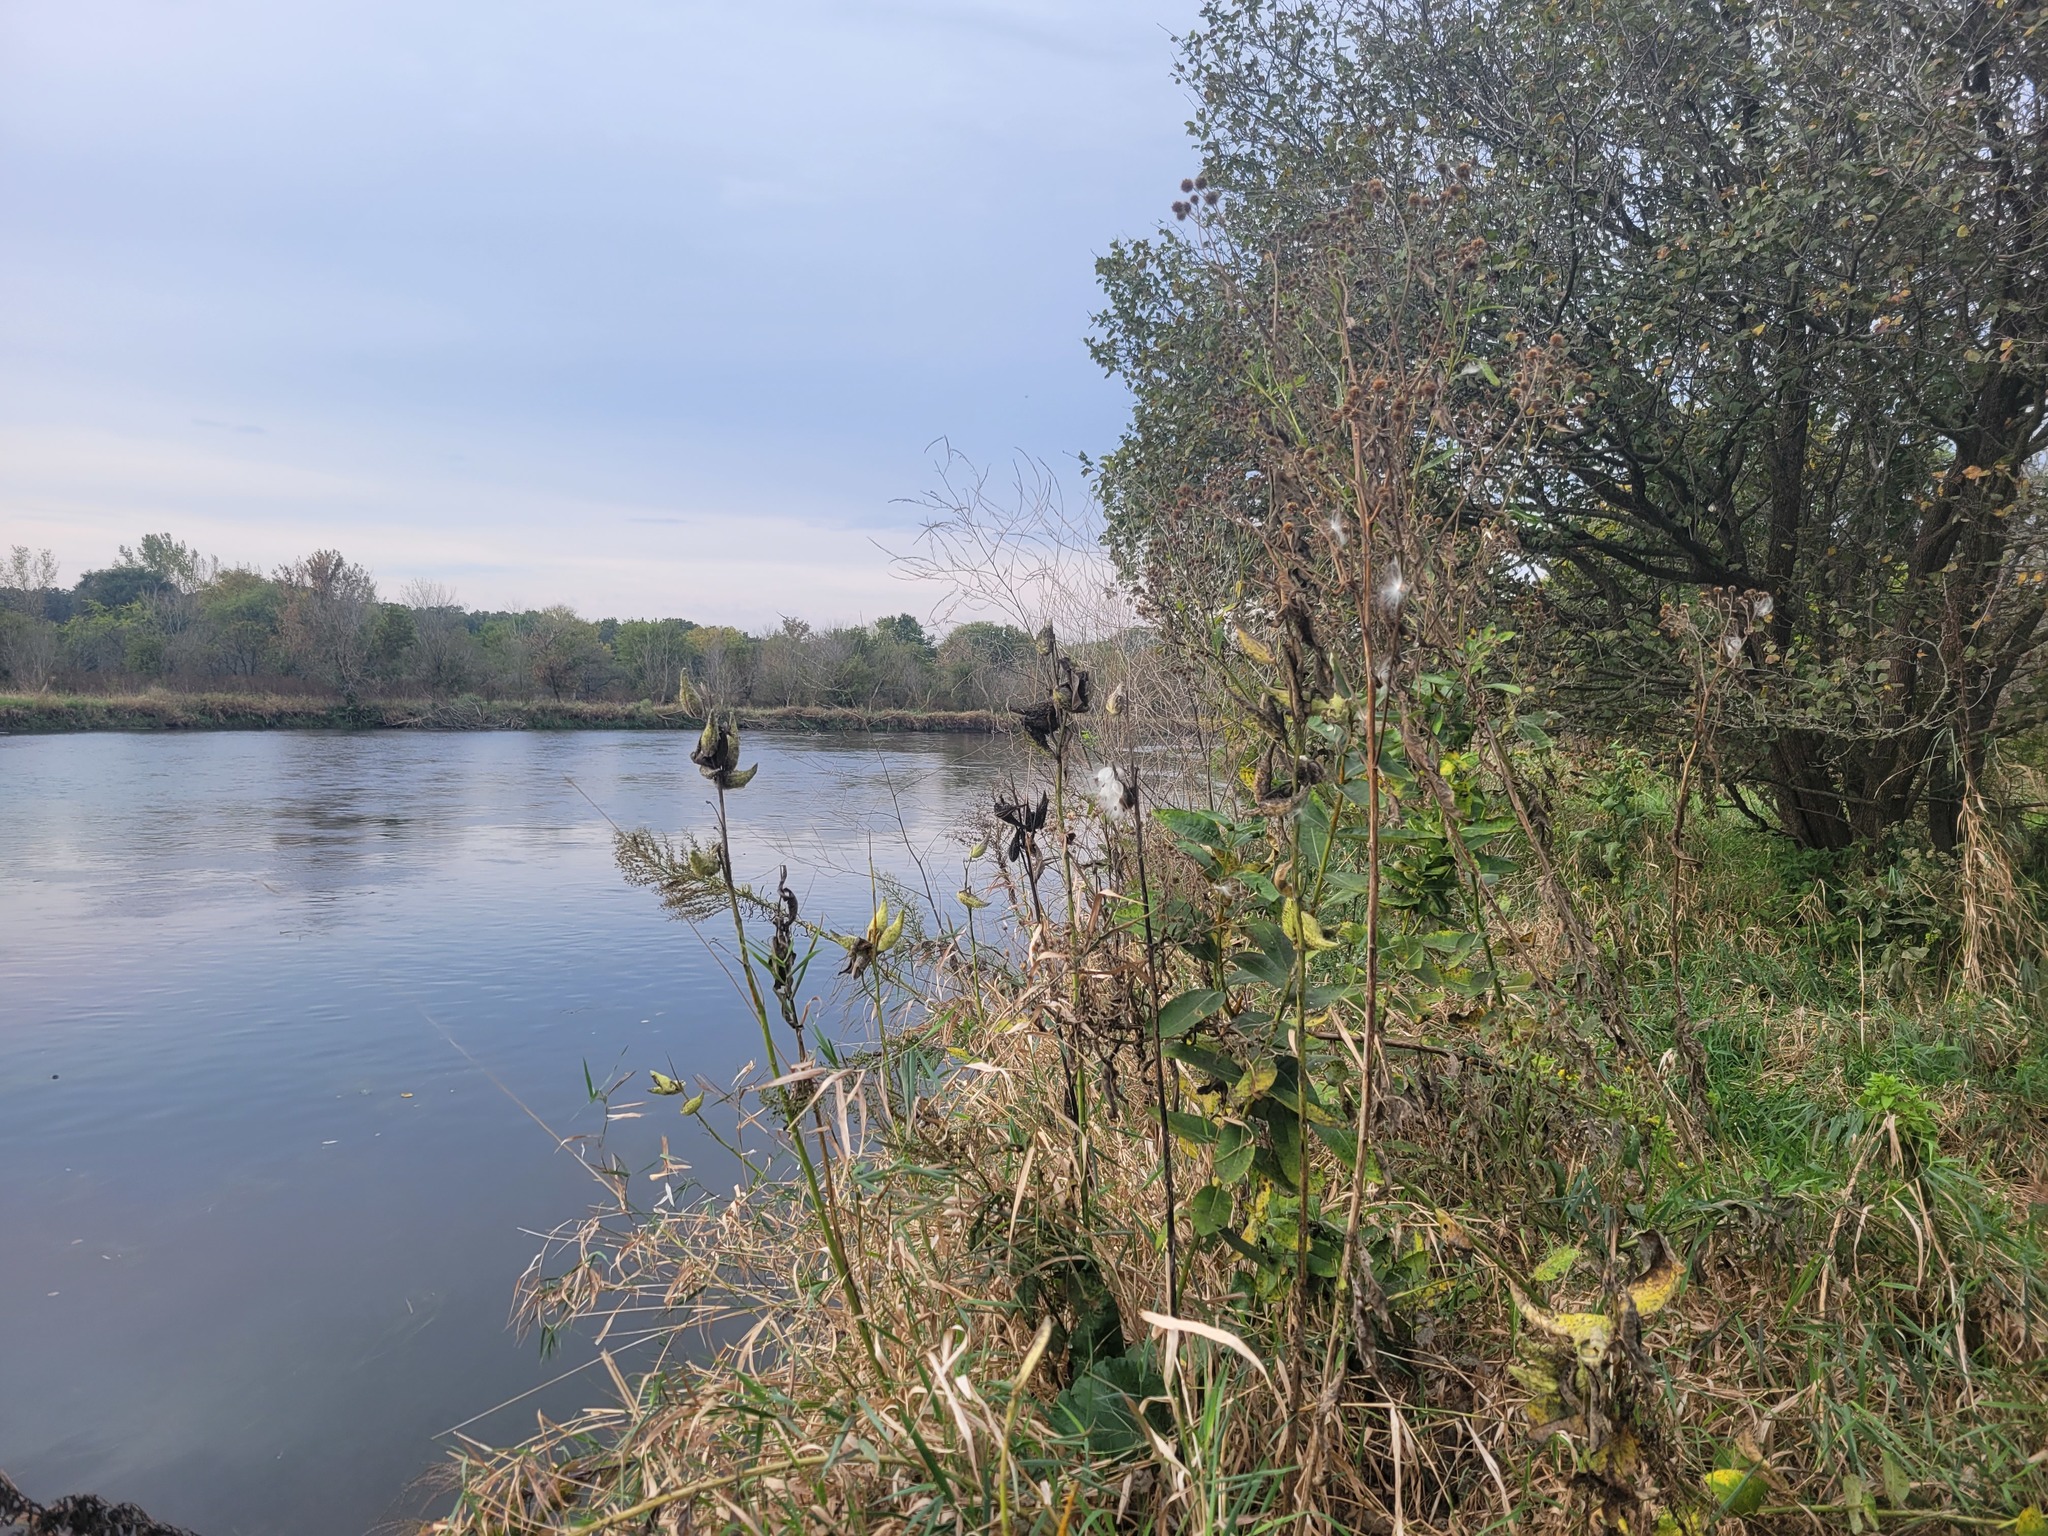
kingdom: Plantae
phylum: Tracheophyta
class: Magnoliopsida
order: Gentianales
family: Apocynaceae
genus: Asclepias
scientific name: Asclepias syriaca
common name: Common milkweed
